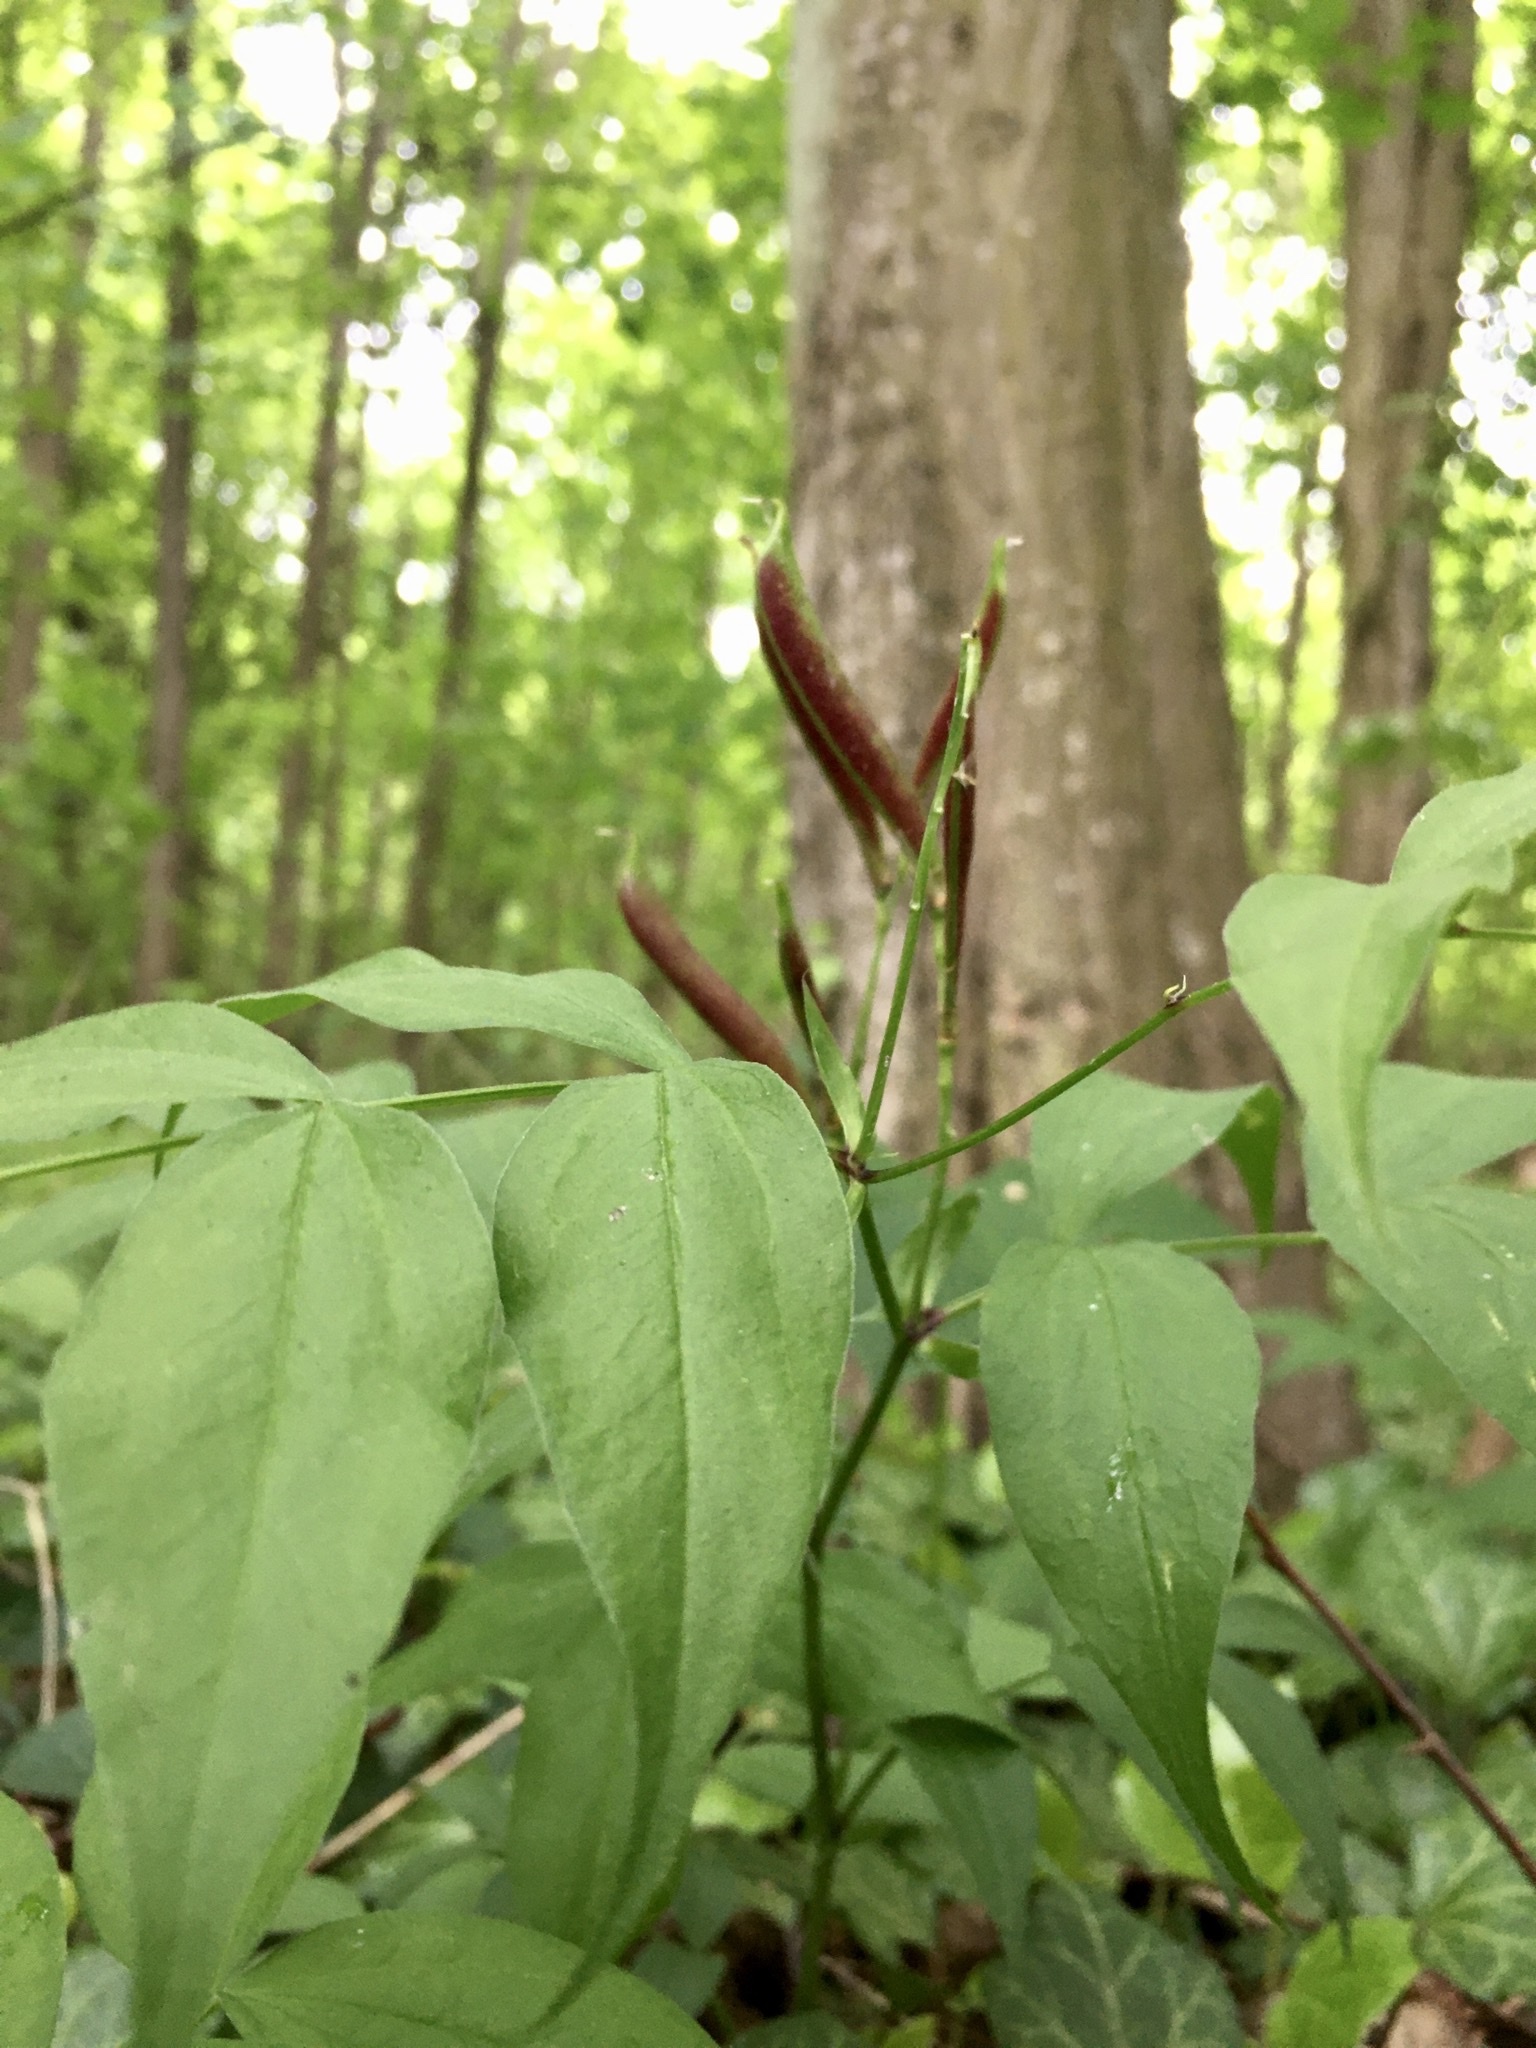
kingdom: Plantae
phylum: Tracheophyta
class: Magnoliopsida
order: Fabales
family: Fabaceae
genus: Lathyrus
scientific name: Lathyrus vernus
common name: Spring pea
